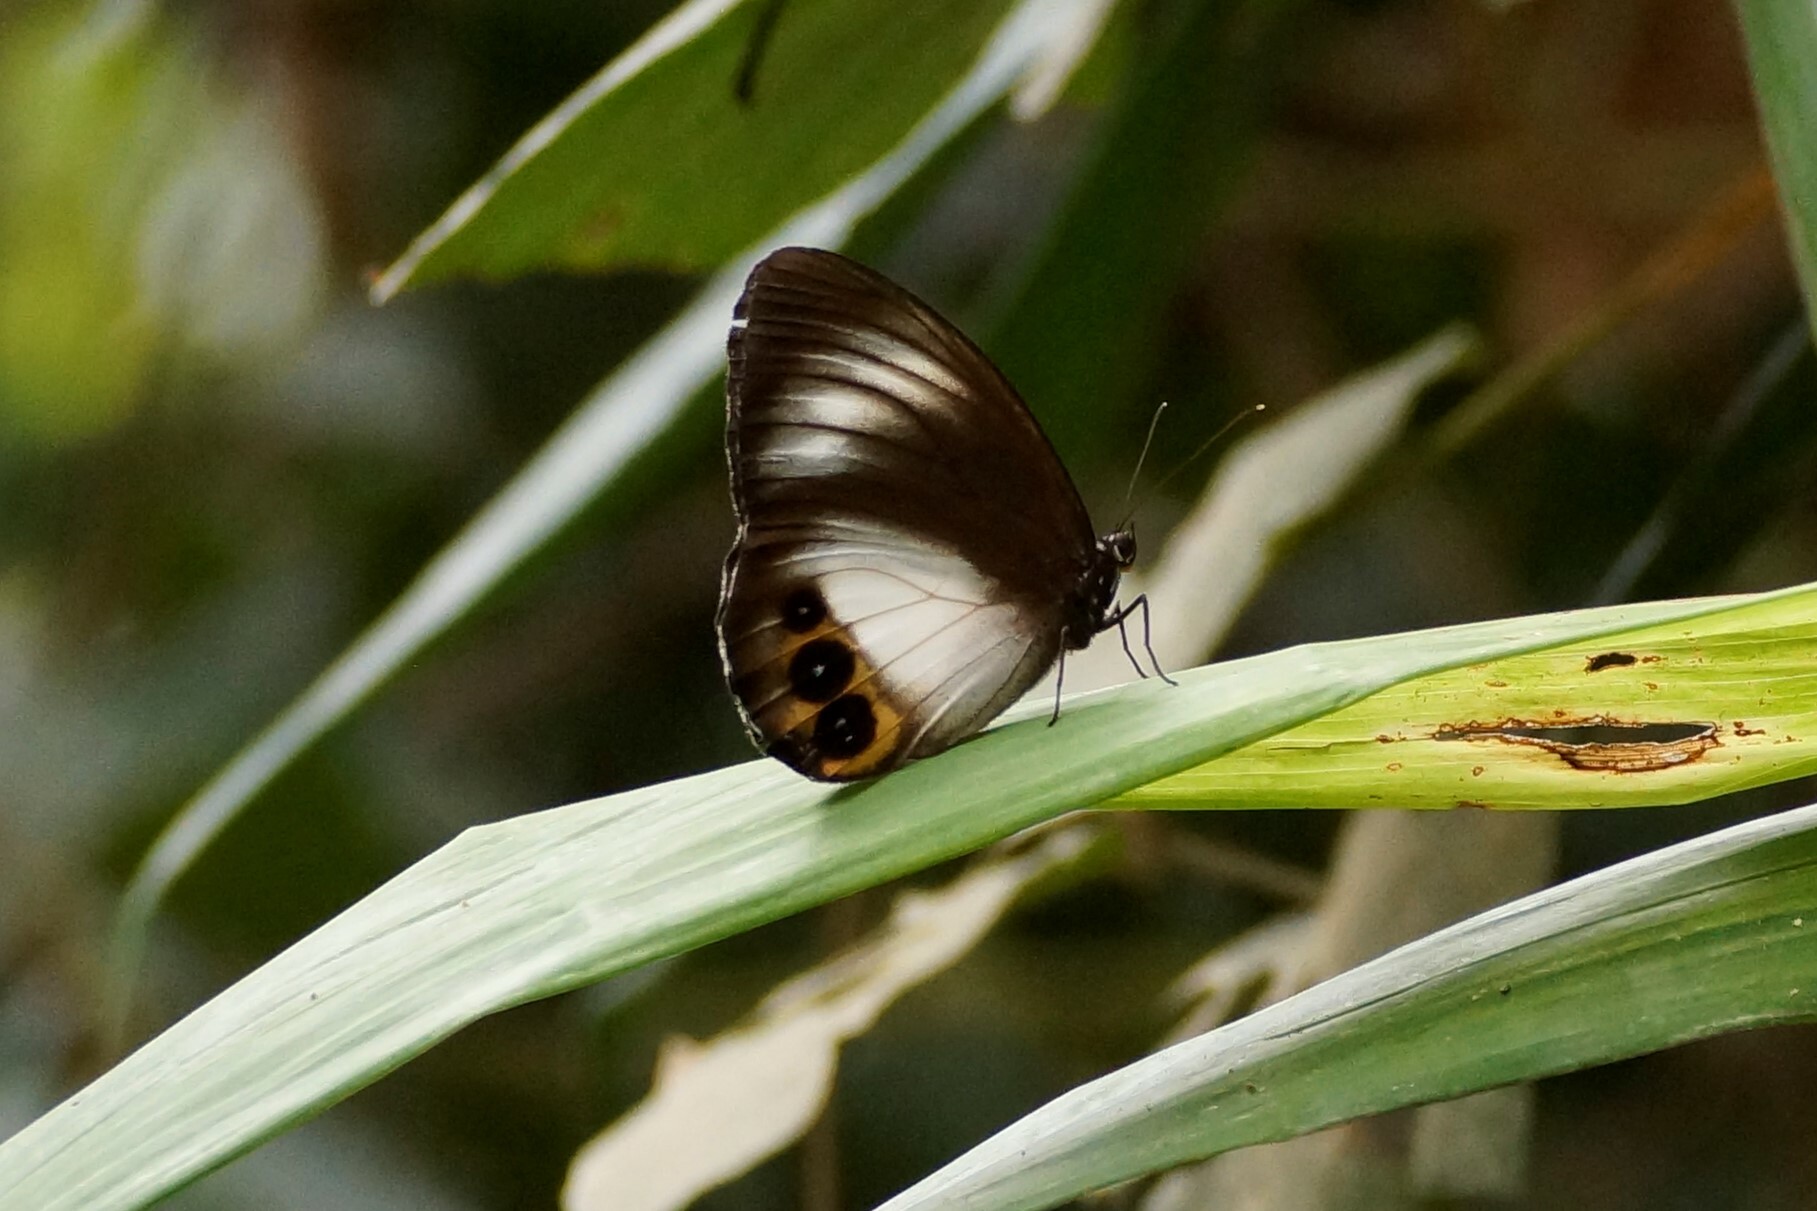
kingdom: Animalia
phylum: Arthropoda
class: Insecta
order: Lepidoptera
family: Nymphalidae
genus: Elymnias
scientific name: Elymnias agondas
